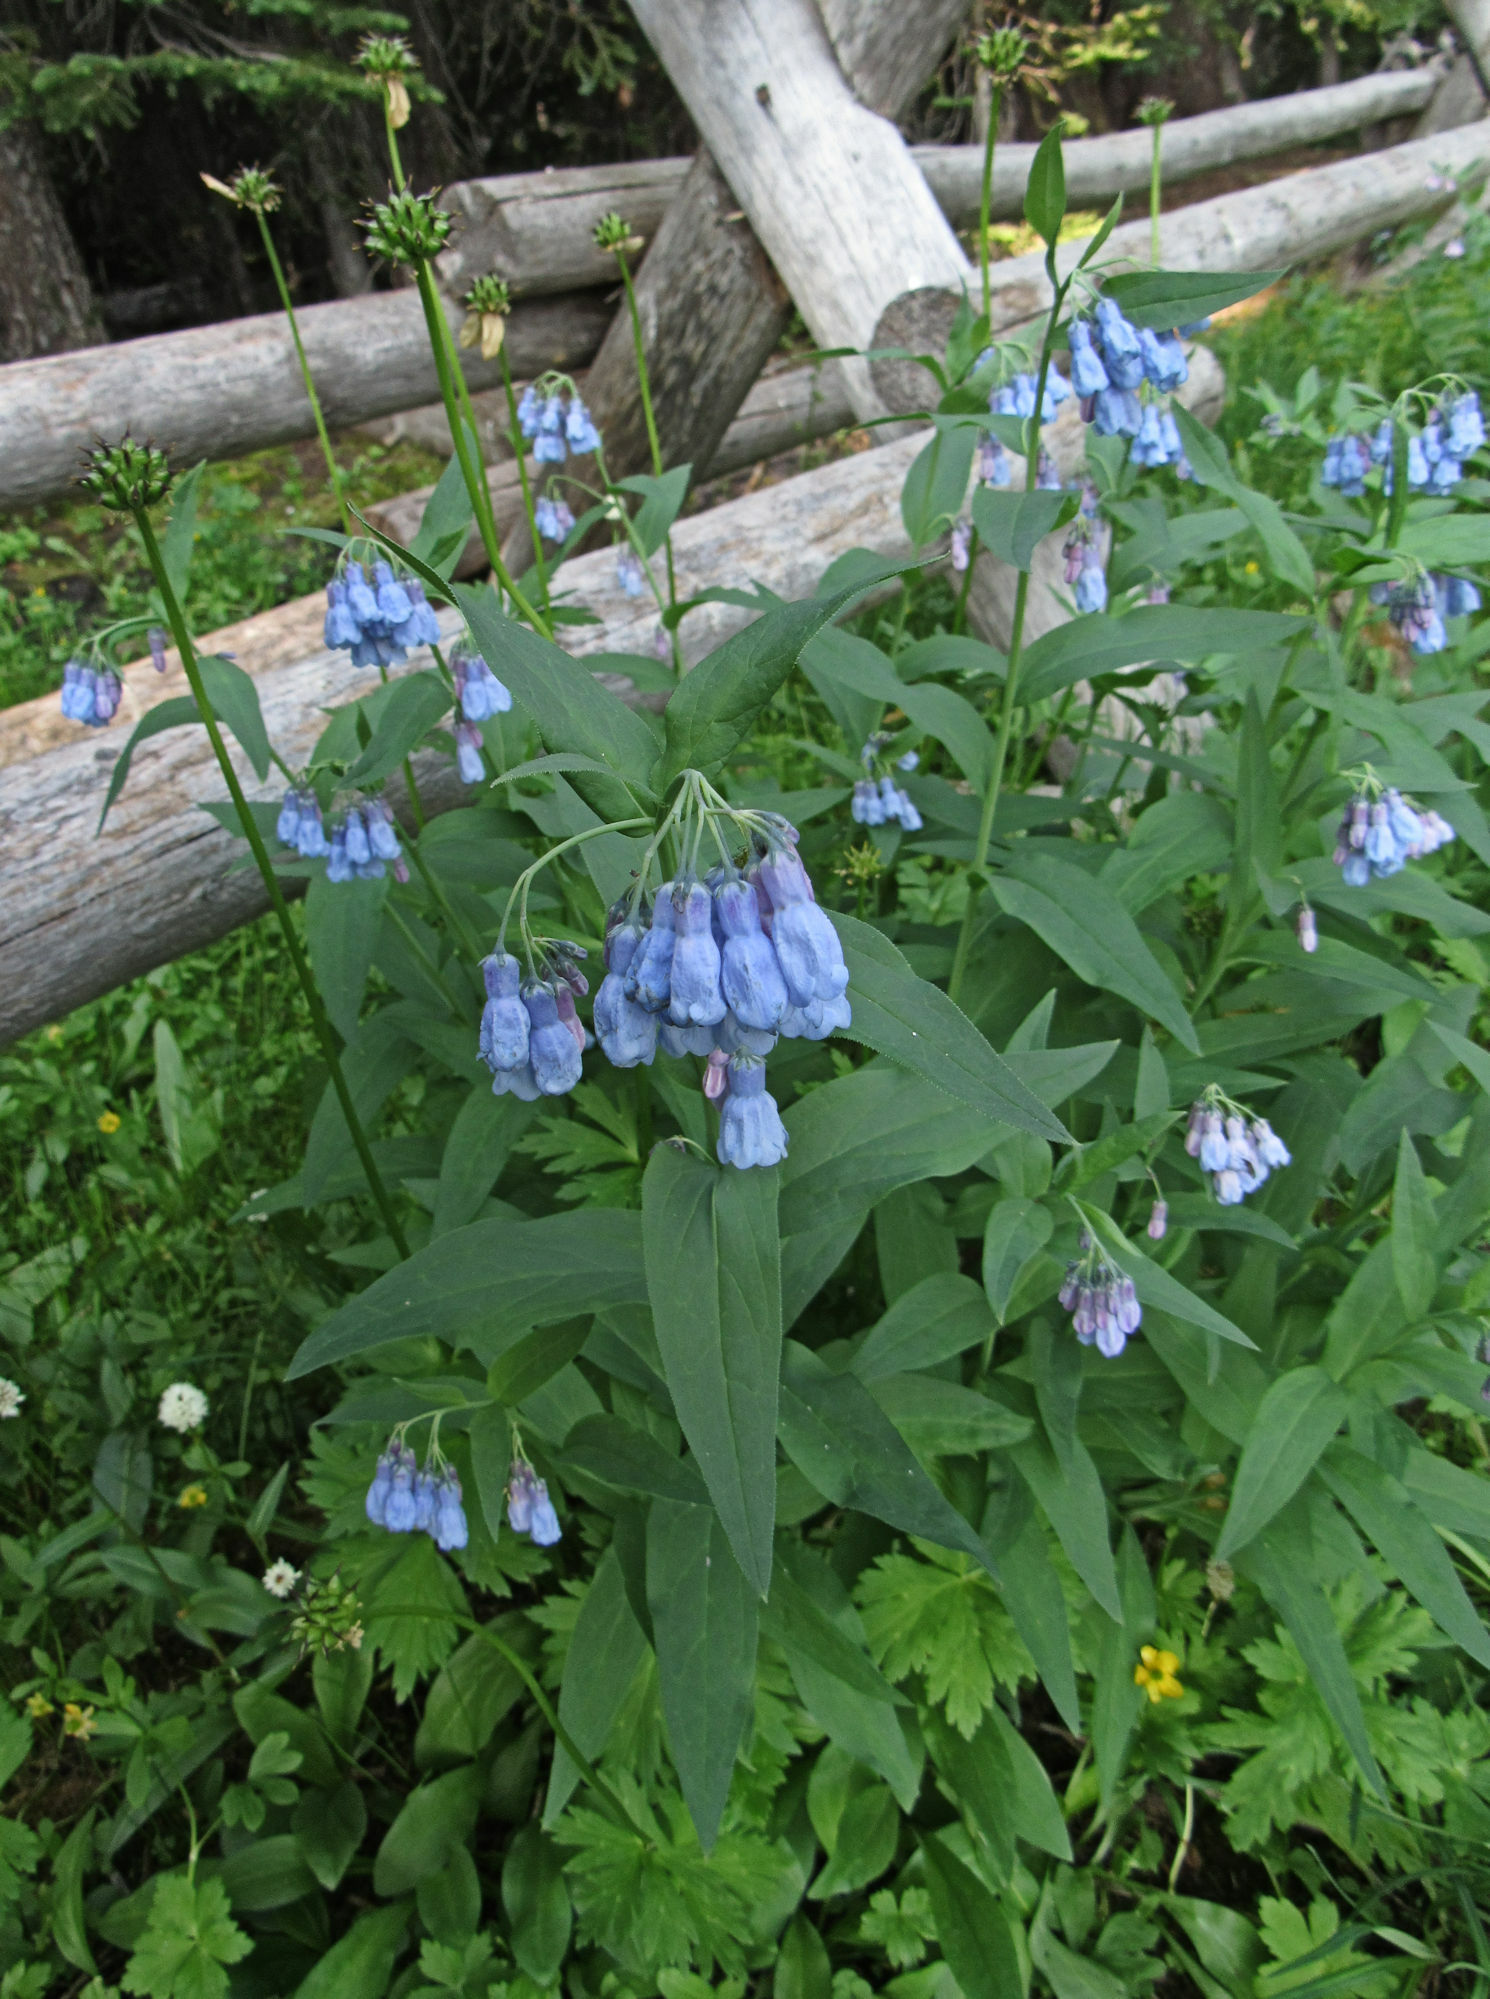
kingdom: Plantae
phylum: Tracheophyta
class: Magnoliopsida
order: Boraginales
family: Boraginaceae
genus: Mertensia
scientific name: Mertensia ciliata
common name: Tall chiming-bells
